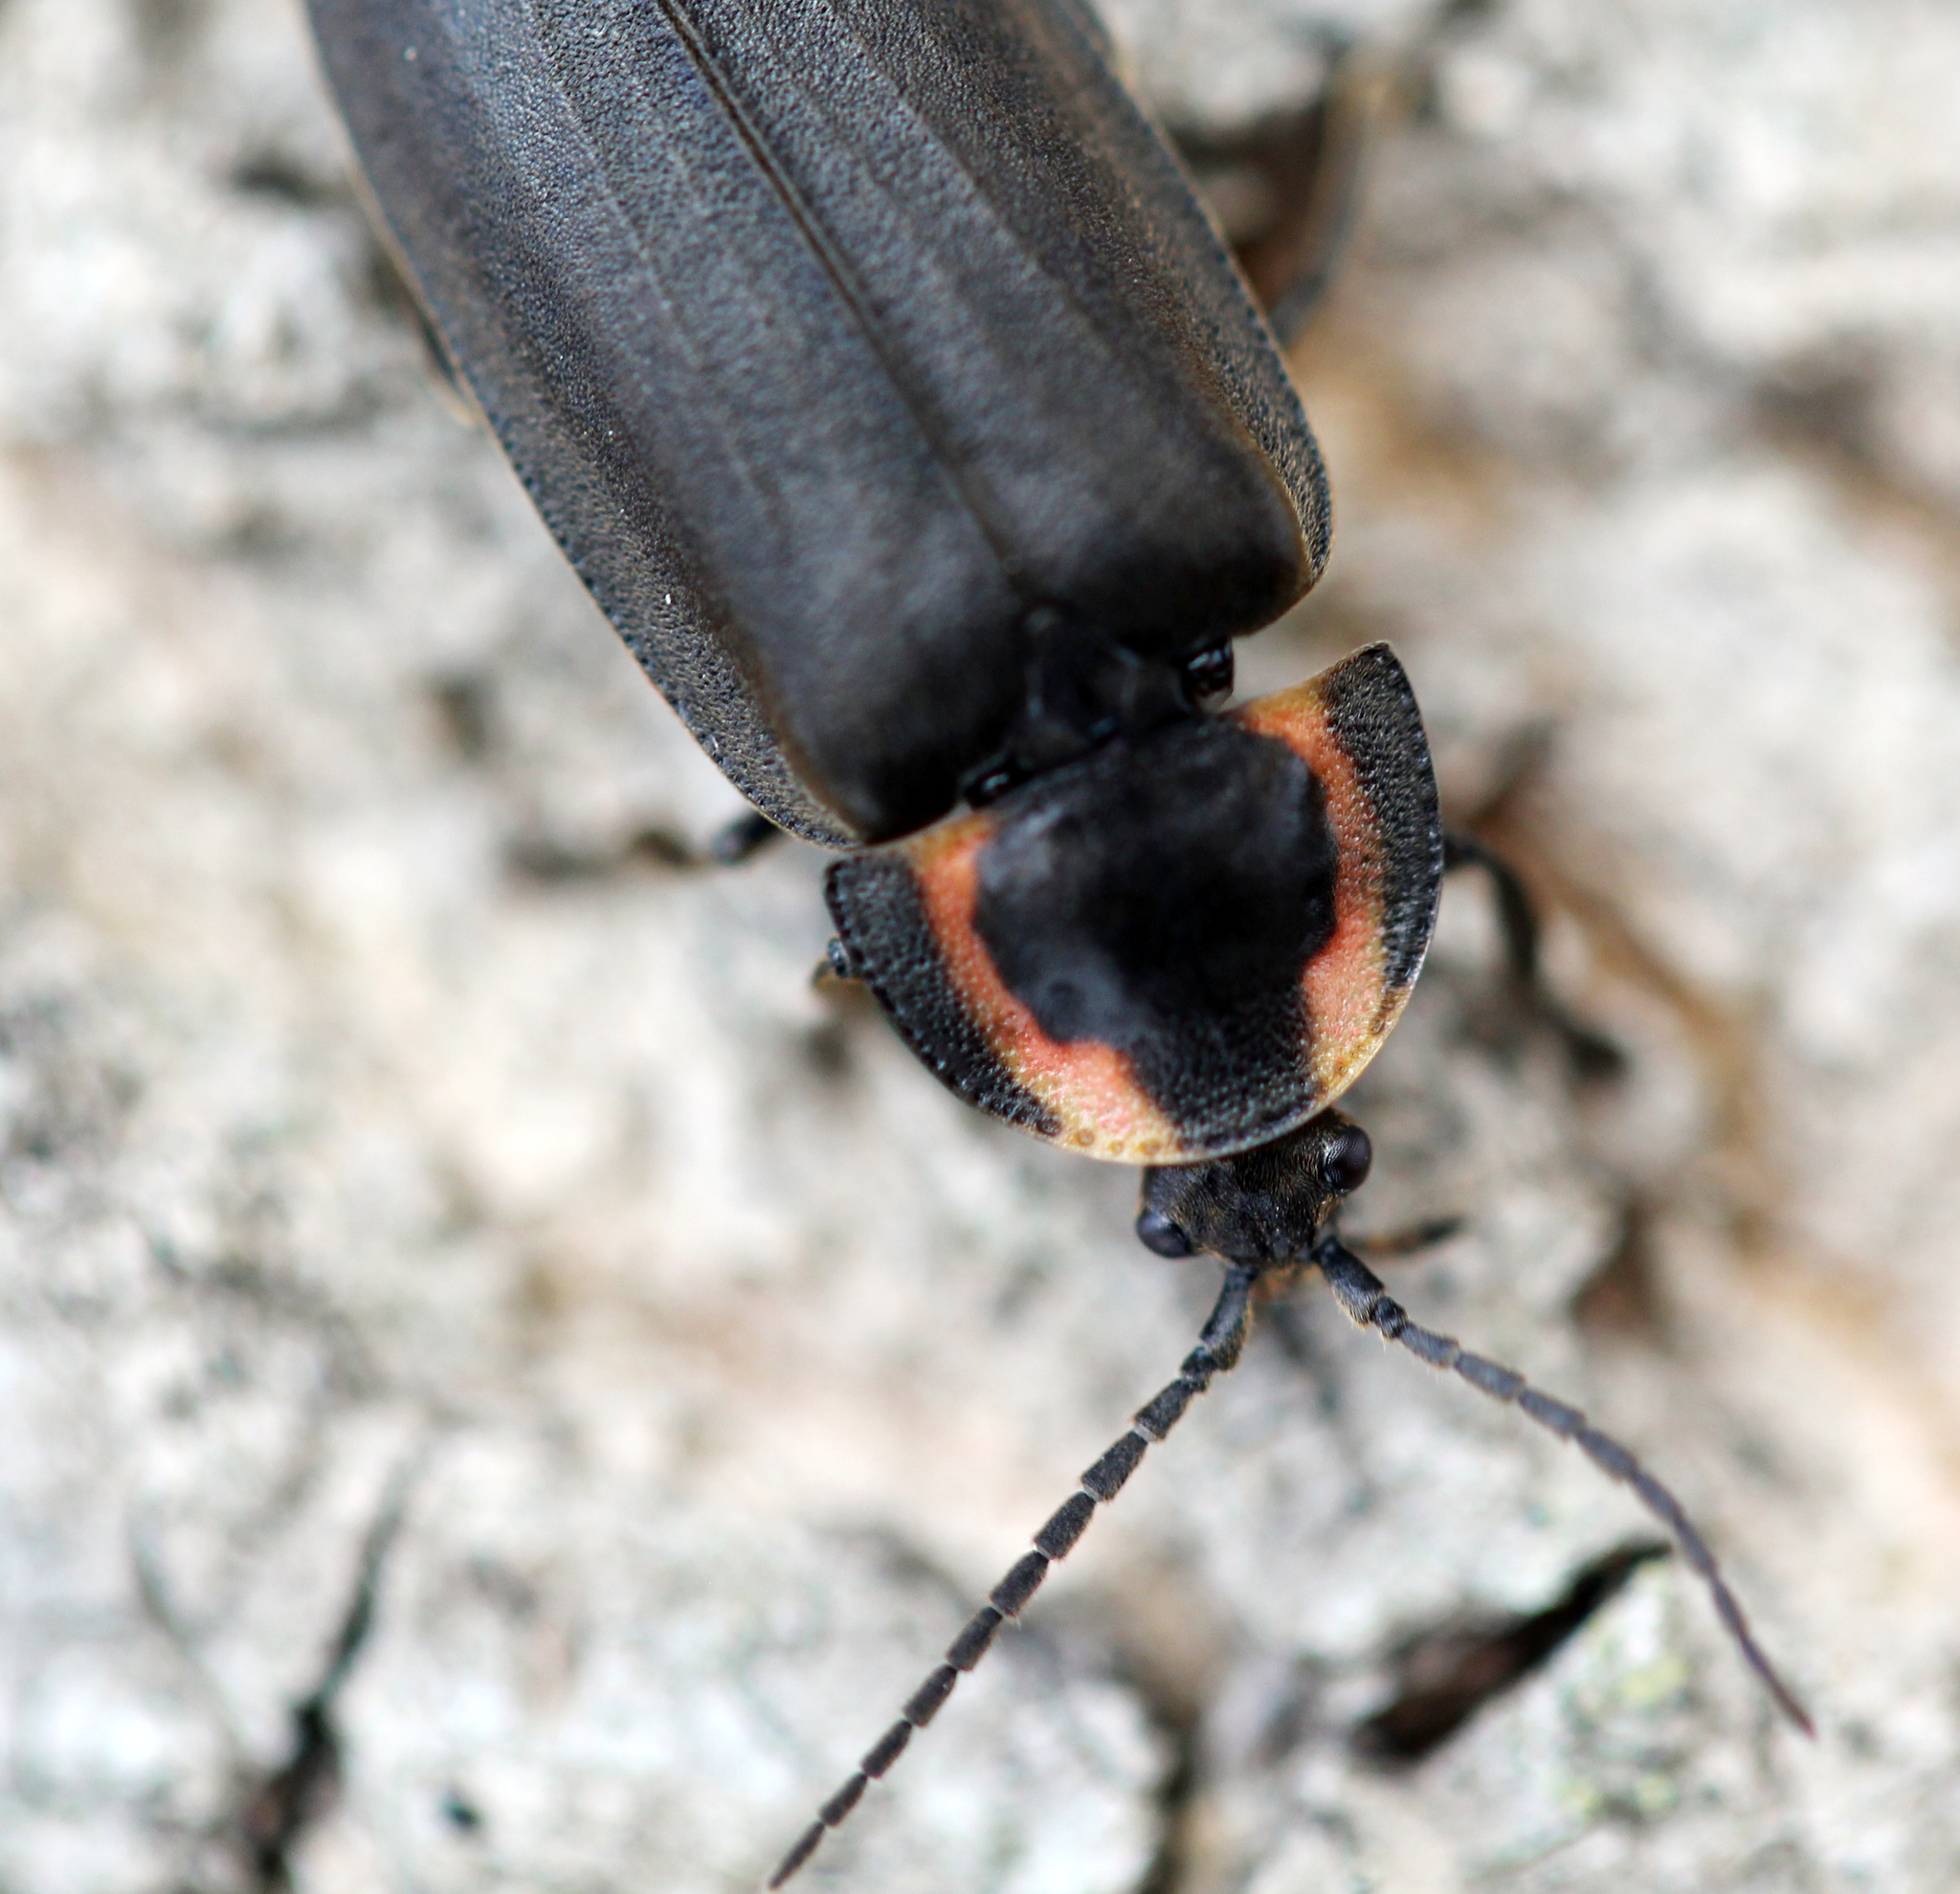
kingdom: Animalia
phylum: Arthropoda
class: Insecta
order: Coleoptera
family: Lampyridae
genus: Photinus
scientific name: Photinus corrusca
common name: Winter firefly
